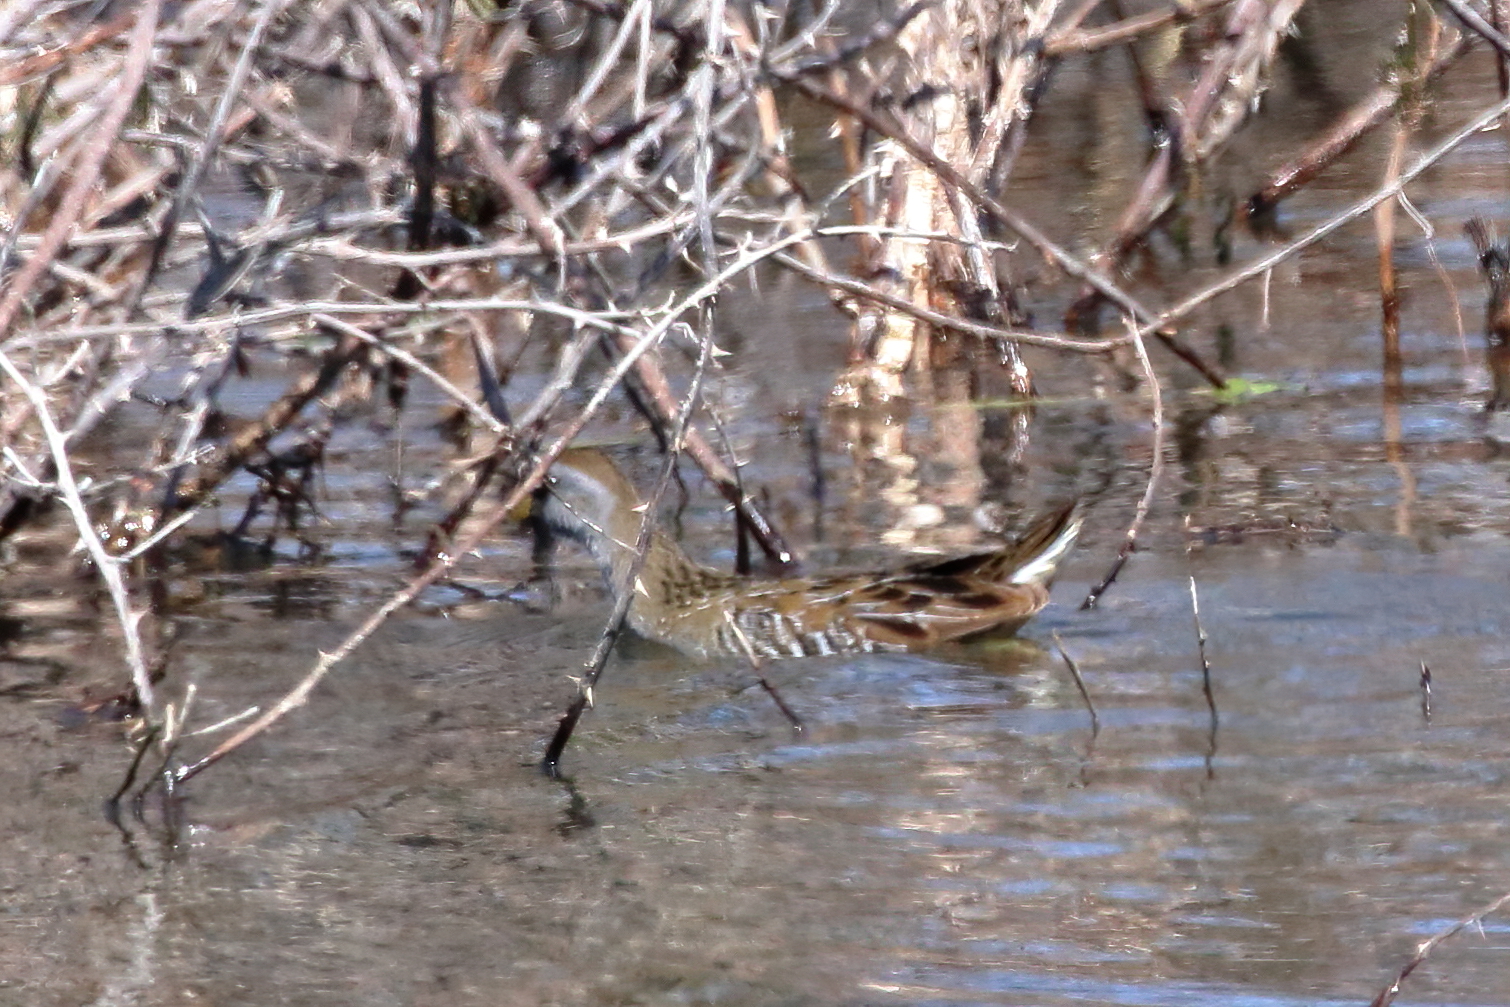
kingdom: Animalia
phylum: Chordata
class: Aves
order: Gruiformes
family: Rallidae
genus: Porzana
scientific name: Porzana carolina
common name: Sora
